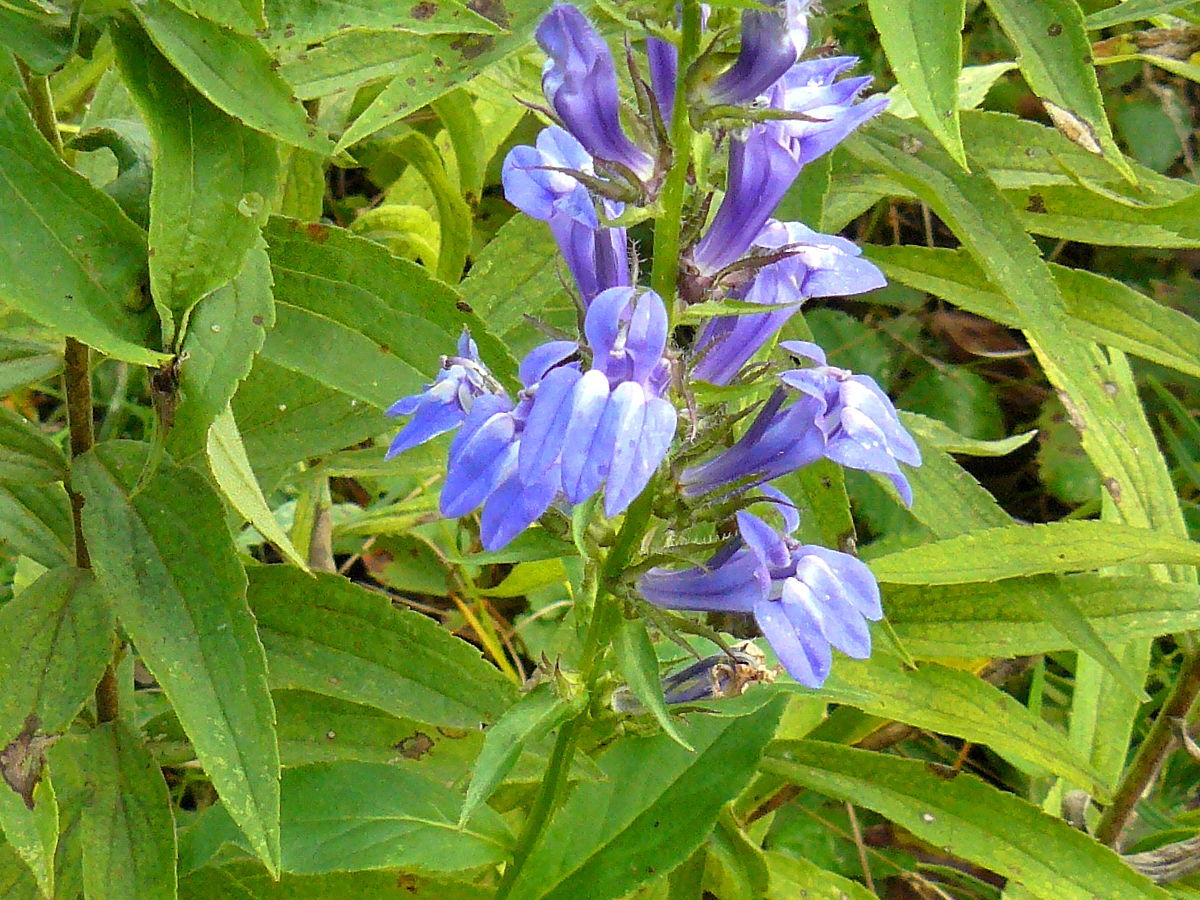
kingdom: Plantae
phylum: Tracheophyta
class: Magnoliopsida
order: Asterales
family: Campanulaceae
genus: Lobelia
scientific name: Lobelia siphilitica
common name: Great lobelia
